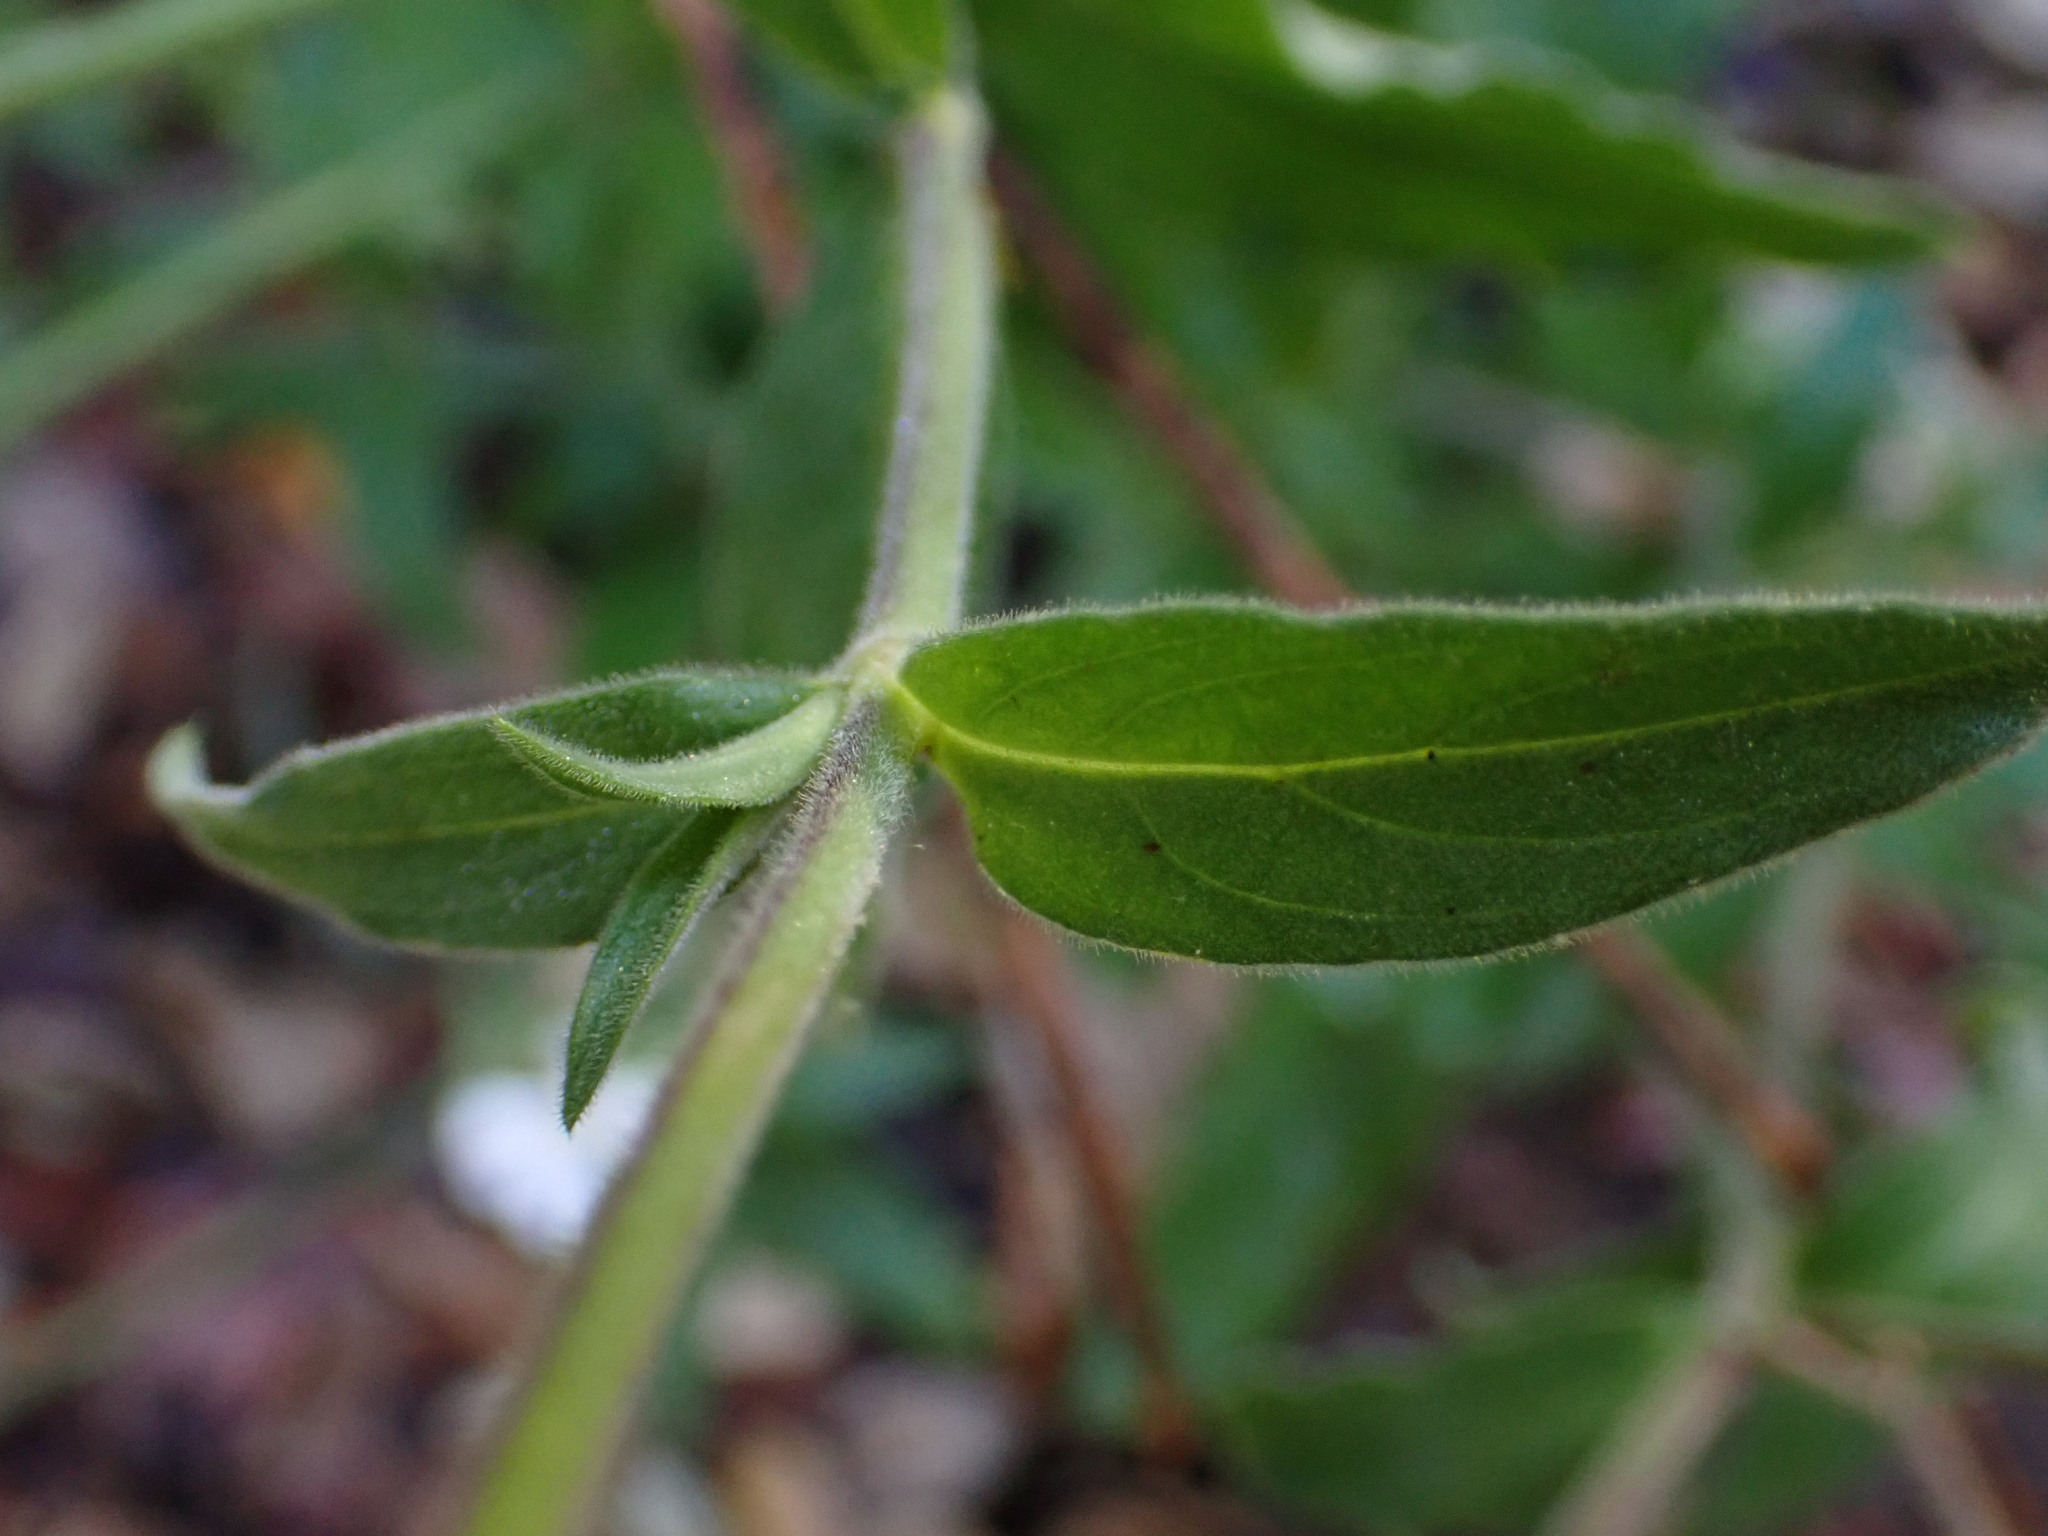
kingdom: Plantae
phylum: Tracheophyta
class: Magnoliopsida
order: Caryophyllales
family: Caryophyllaceae
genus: Silene
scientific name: Silene latifolia
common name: White campion
